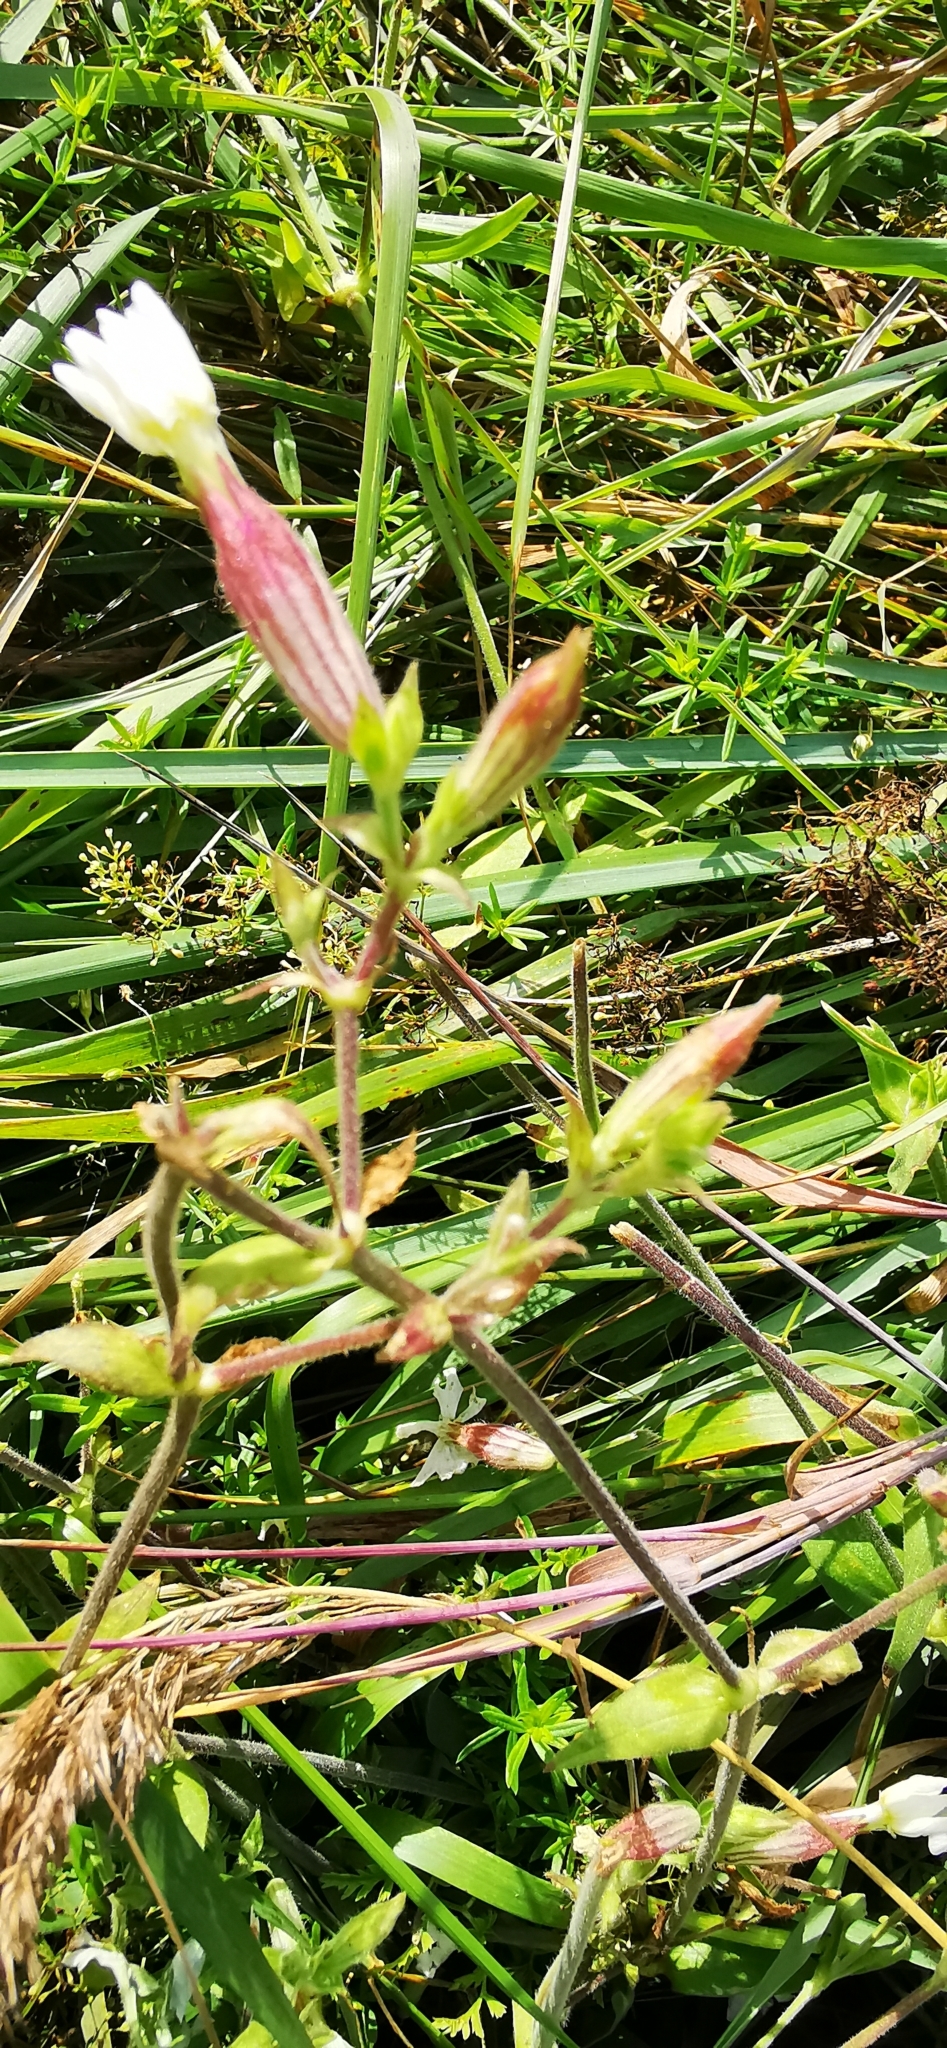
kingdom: Plantae
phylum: Tracheophyta
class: Magnoliopsida
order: Caryophyllales
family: Caryophyllaceae
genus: Silene
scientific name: Silene latifolia
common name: White campion
